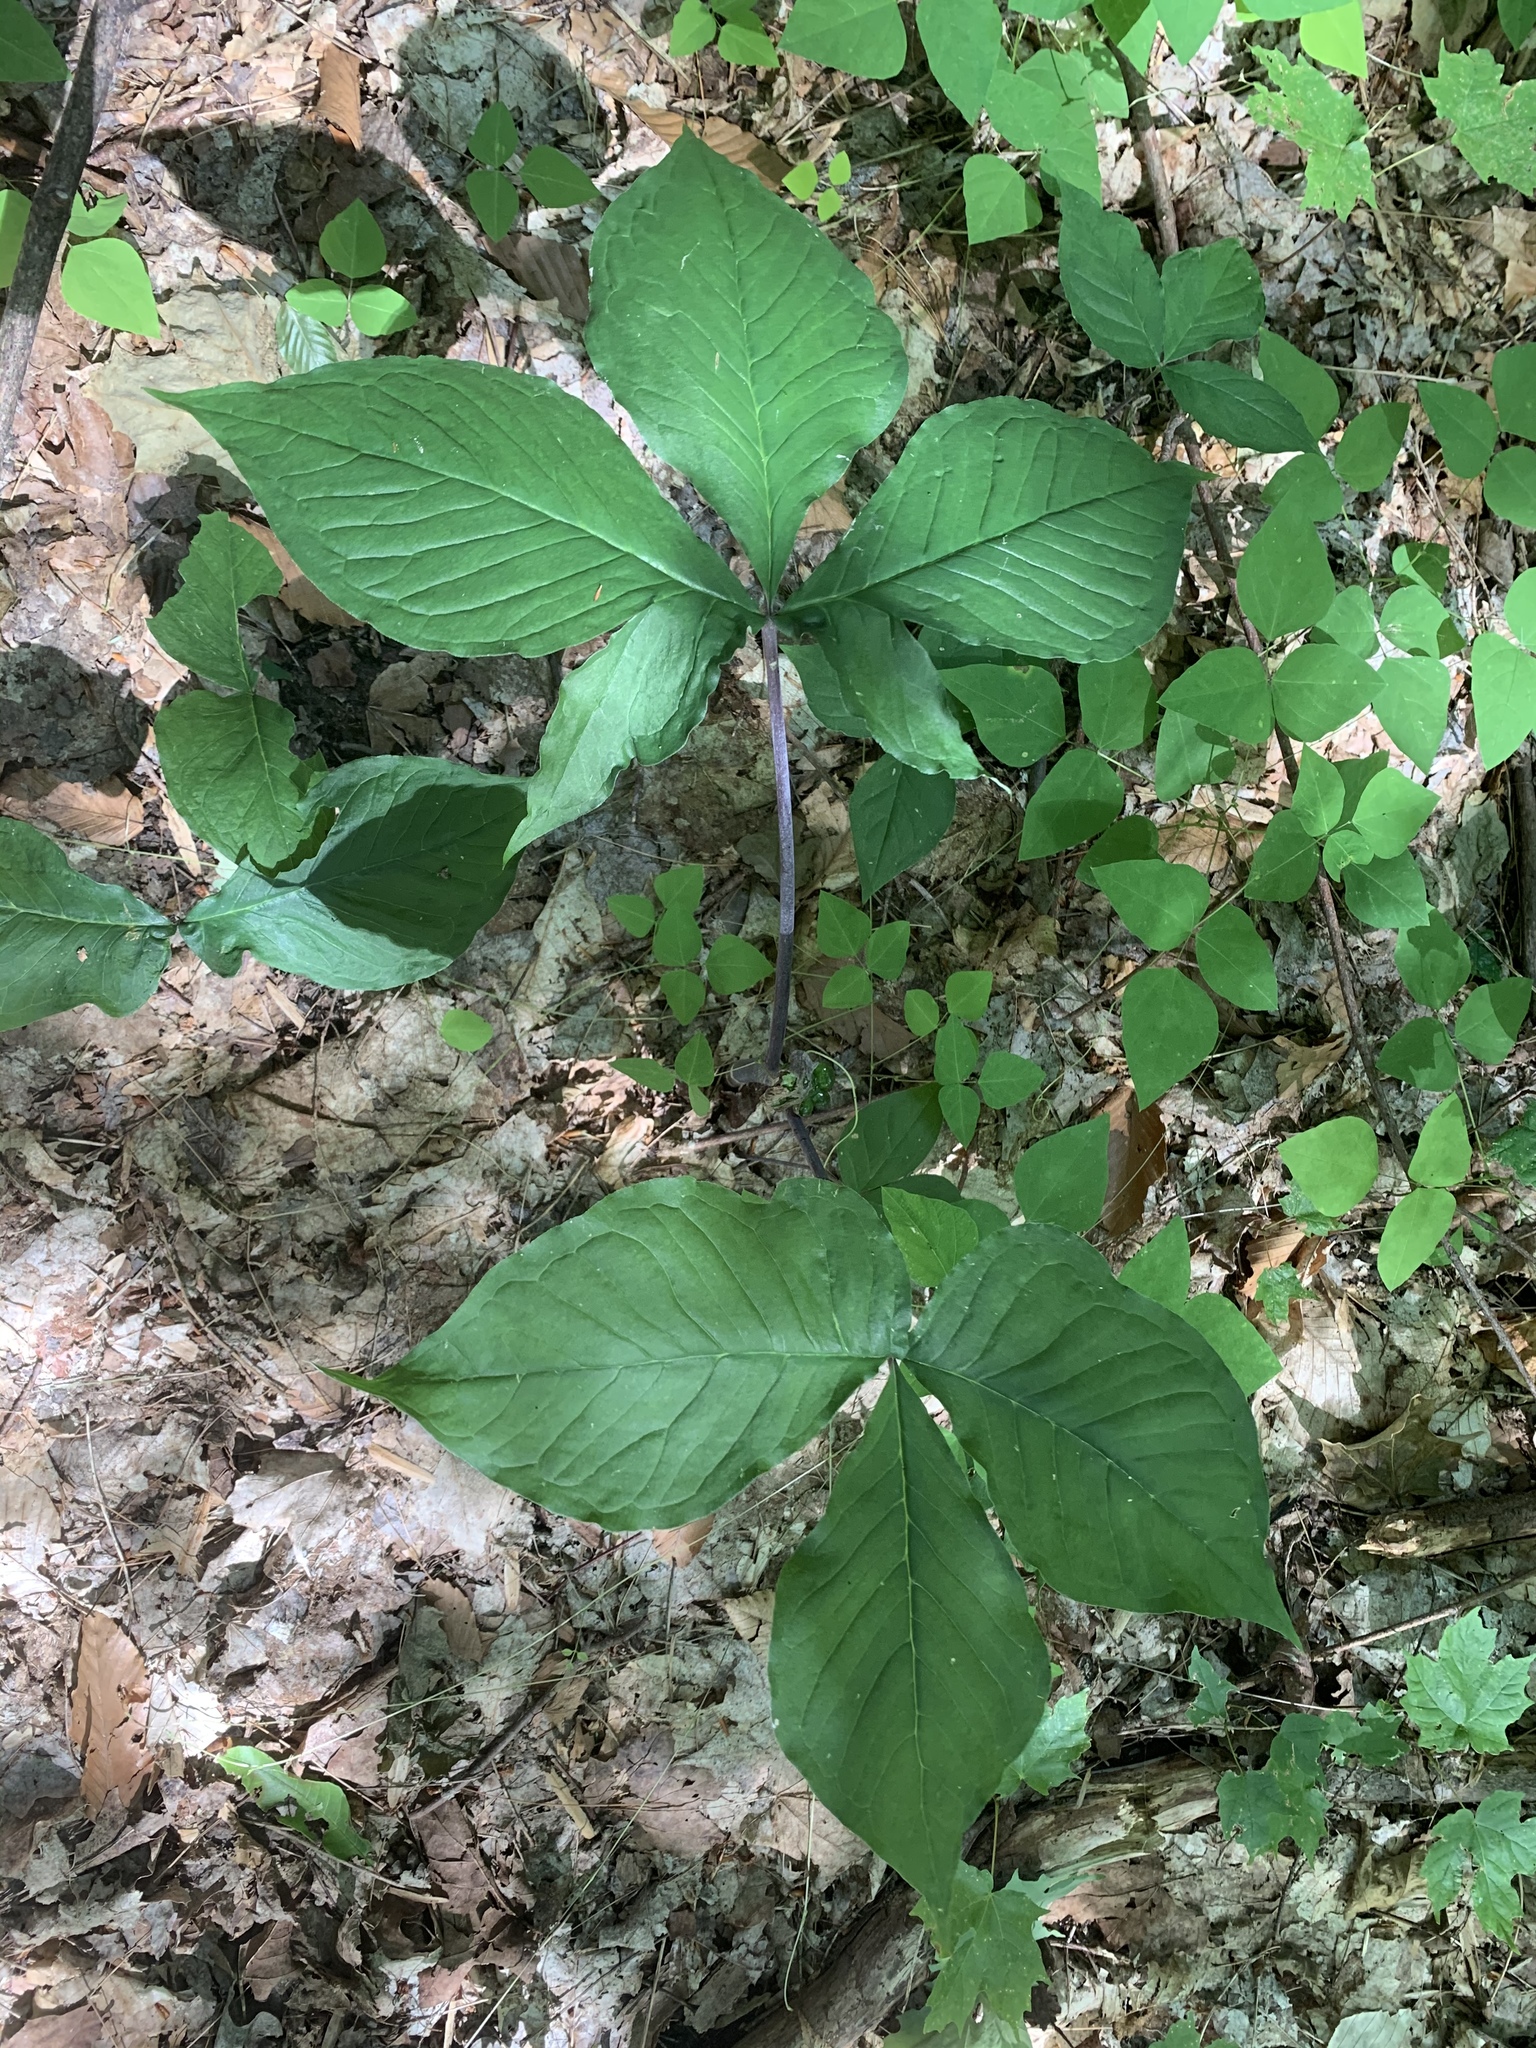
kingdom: Plantae
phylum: Tracheophyta
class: Liliopsida
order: Alismatales
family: Araceae
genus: Arisaema
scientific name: Arisaema triphyllum
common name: Jack-in-the-pulpit
